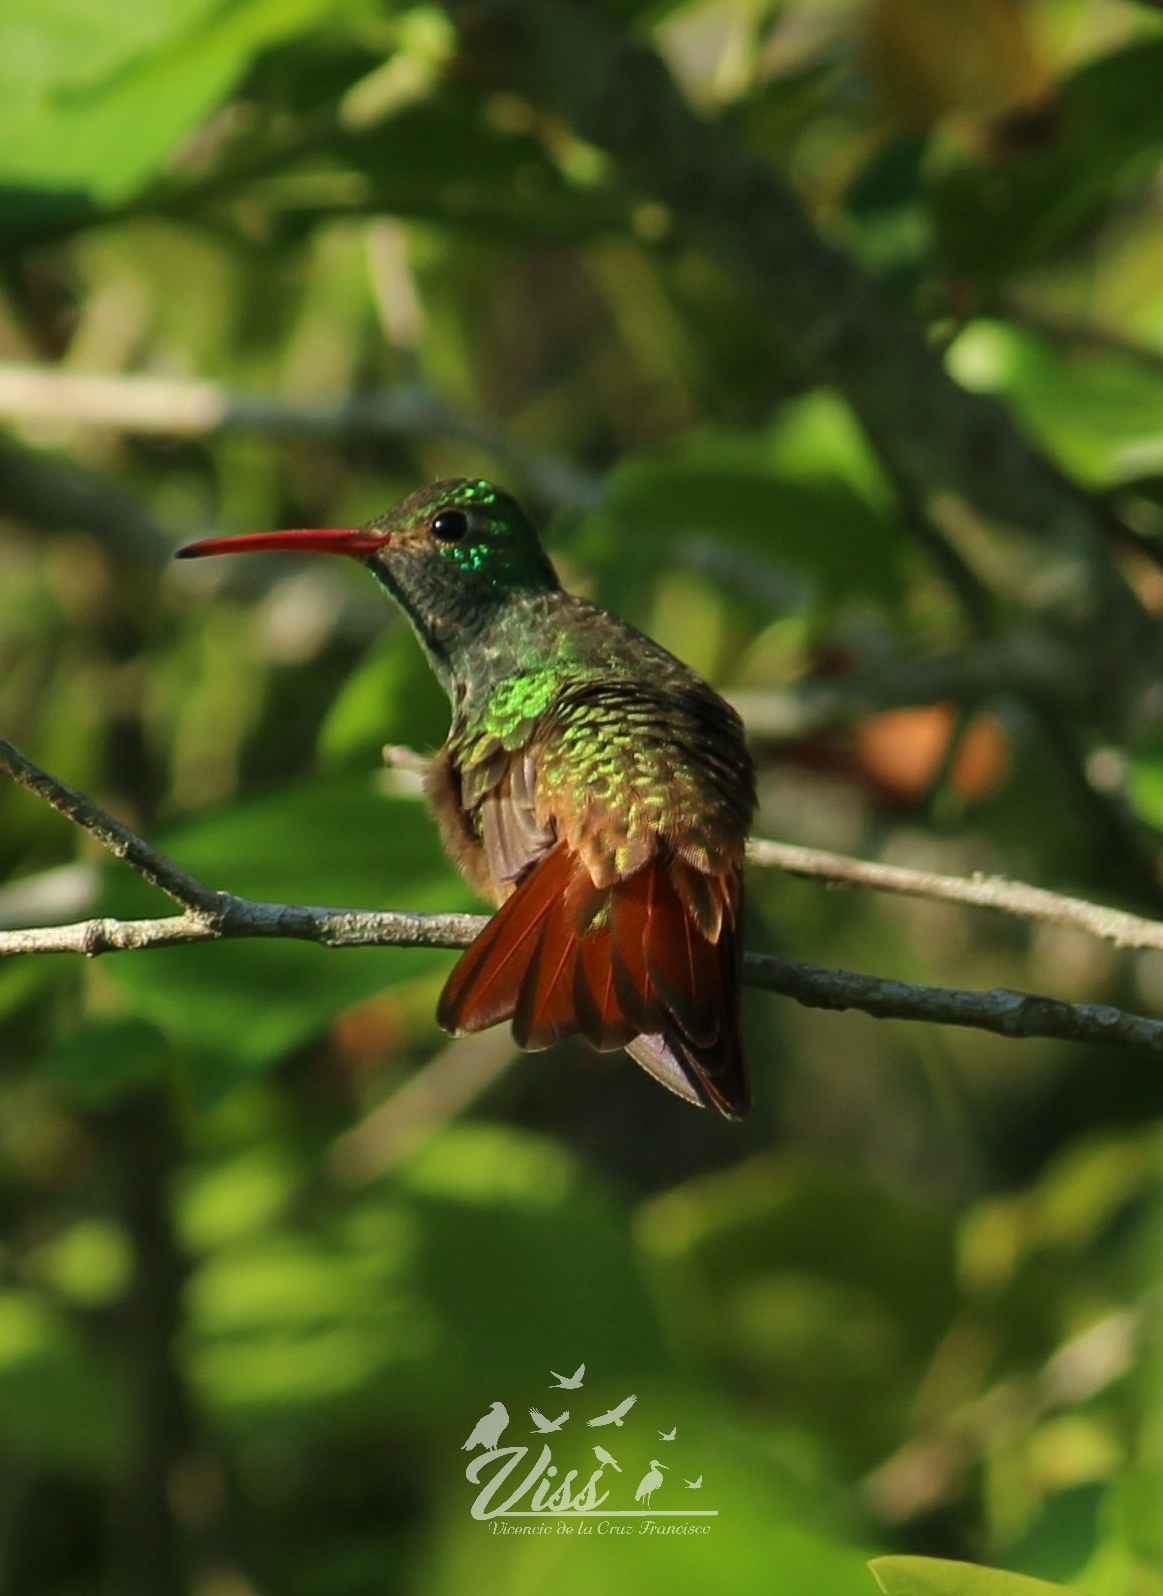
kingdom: Animalia
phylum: Chordata
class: Aves
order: Apodiformes
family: Trochilidae
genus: Amazilia
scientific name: Amazilia yucatanensis
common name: Buff-bellied hummingbird
